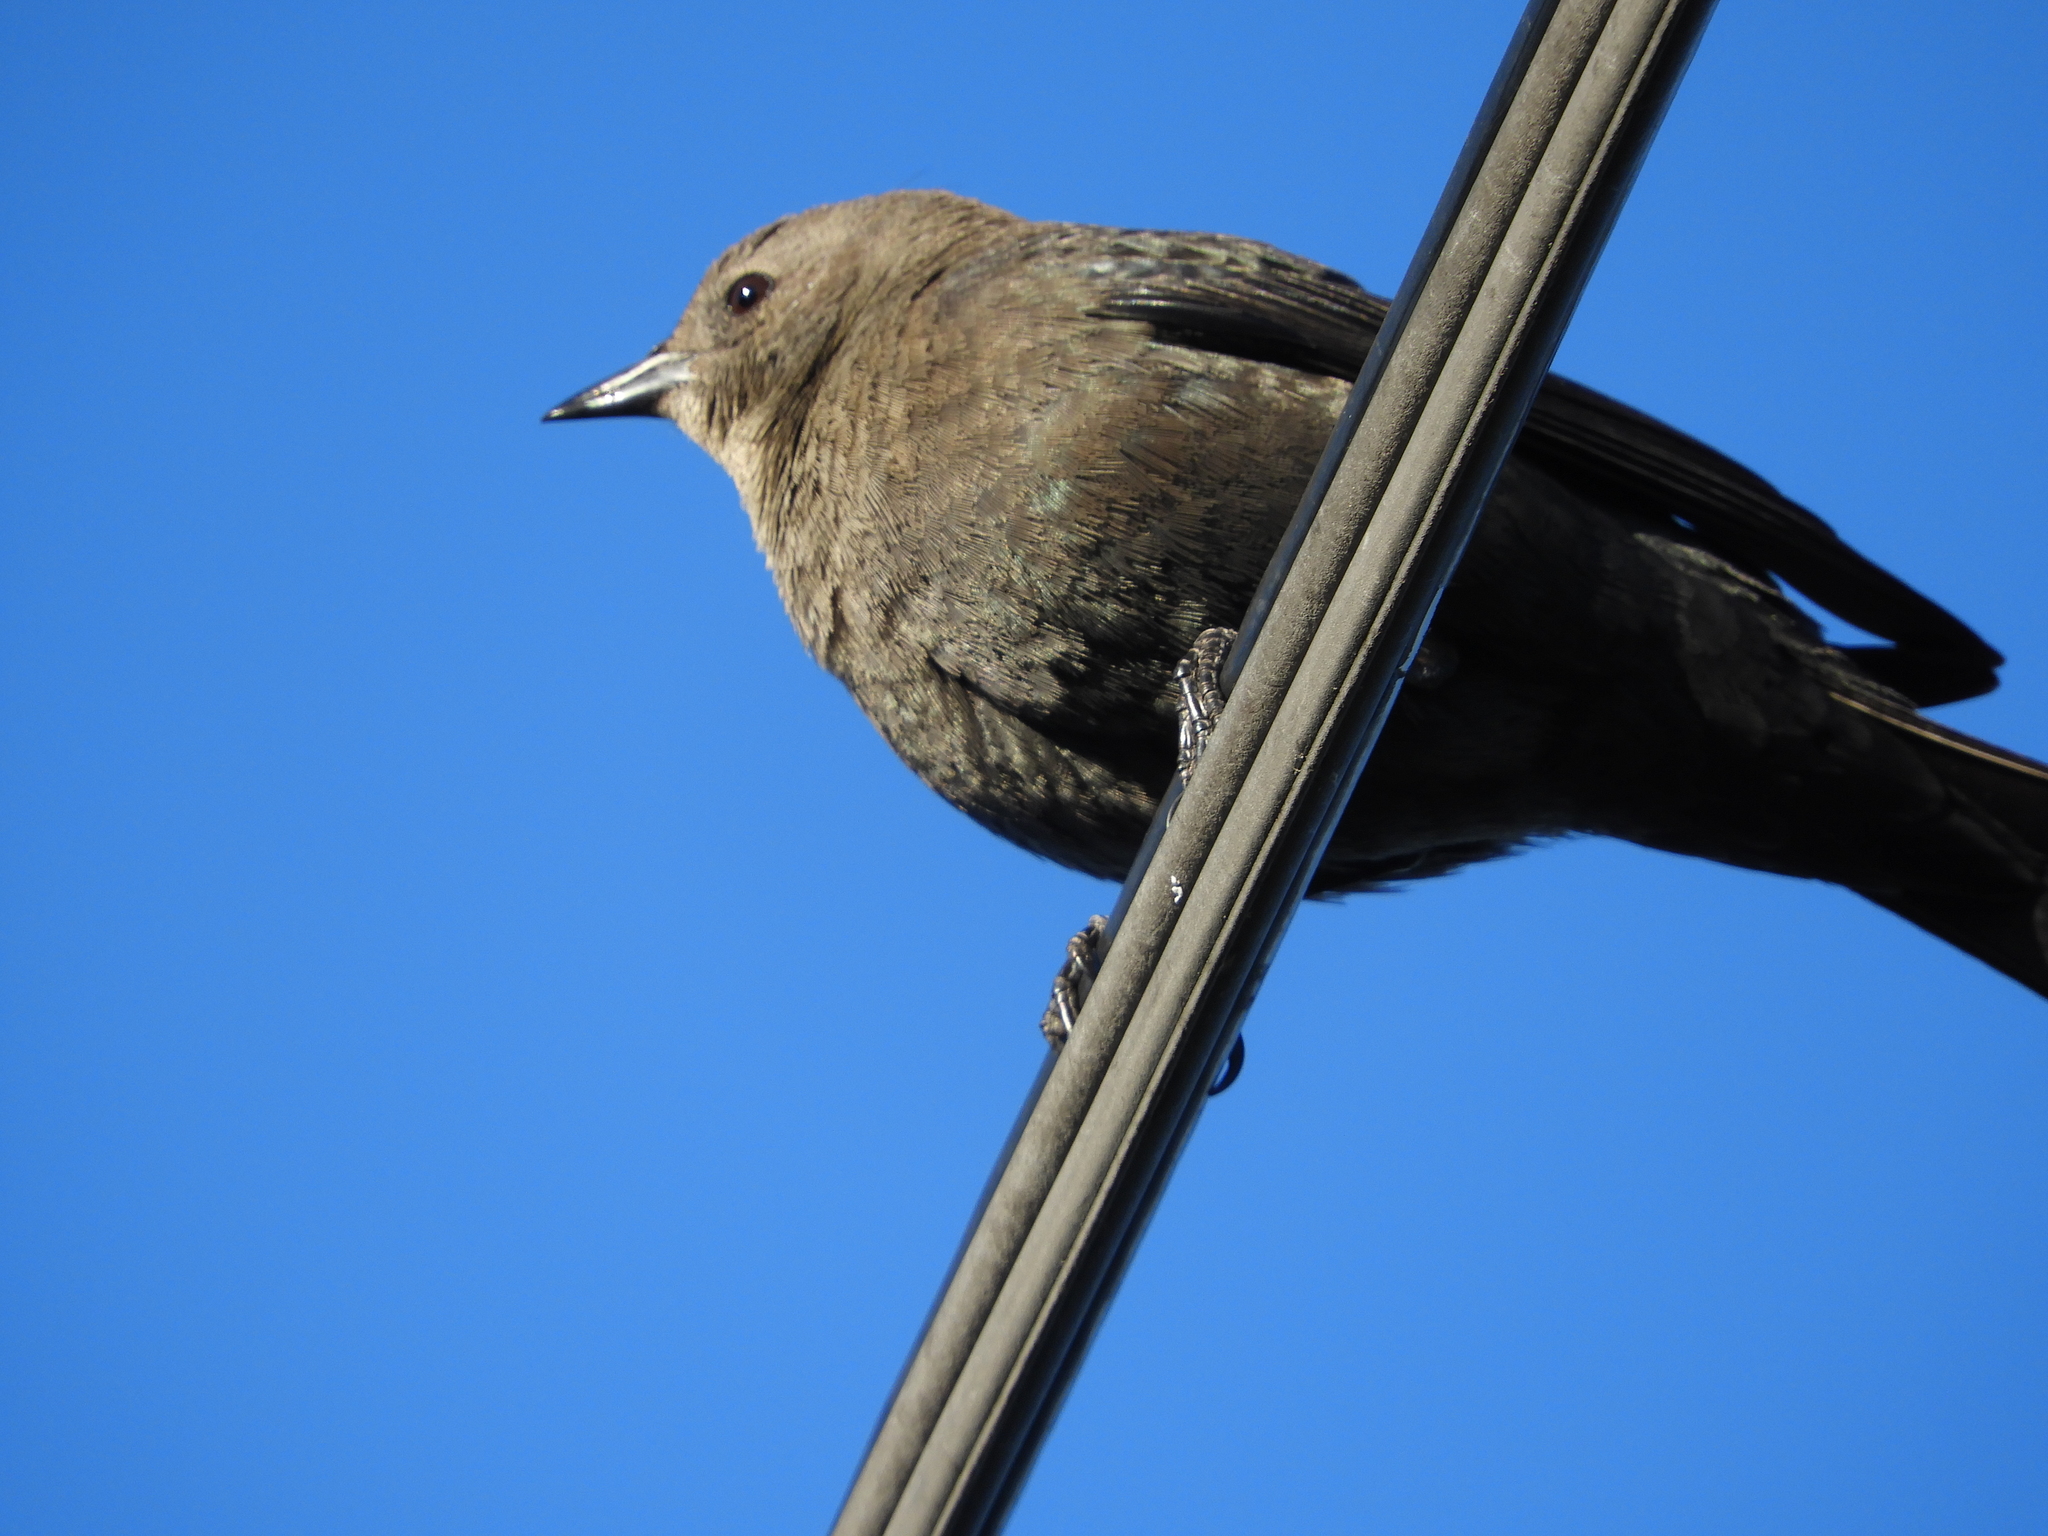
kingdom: Animalia
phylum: Chordata
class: Aves
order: Passeriformes
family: Icteridae
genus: Euphagus
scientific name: Euphagus cyanocephalus
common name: Brewer's blackbird
